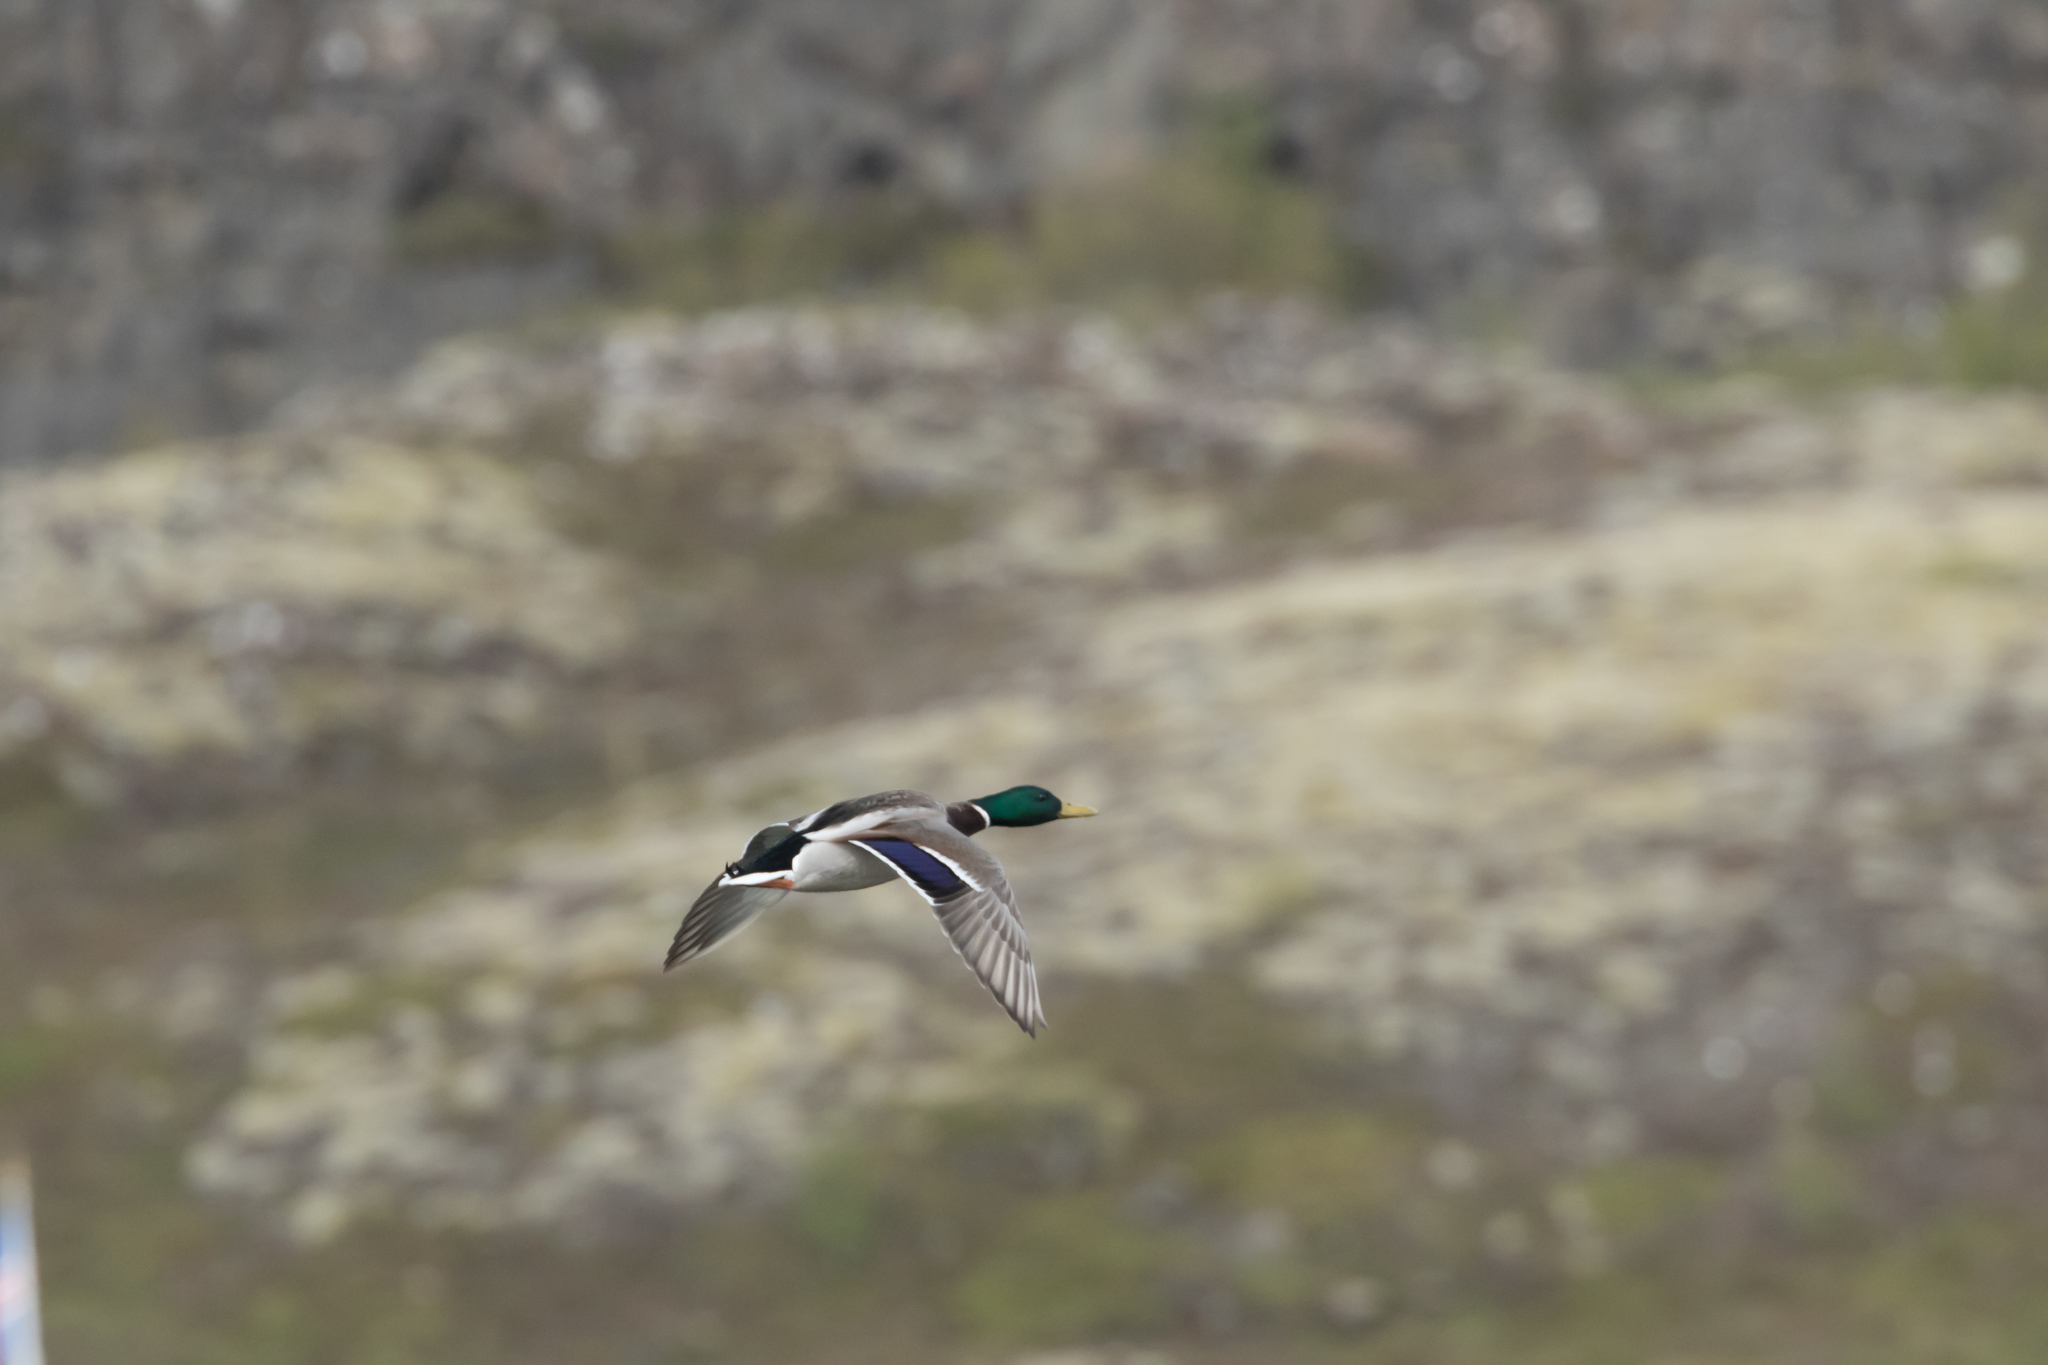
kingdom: Animalia
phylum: Chordata
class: Aves
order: Anseriformes
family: Anatidae
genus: Anas
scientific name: Anas platyrhynchos
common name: Mallard
